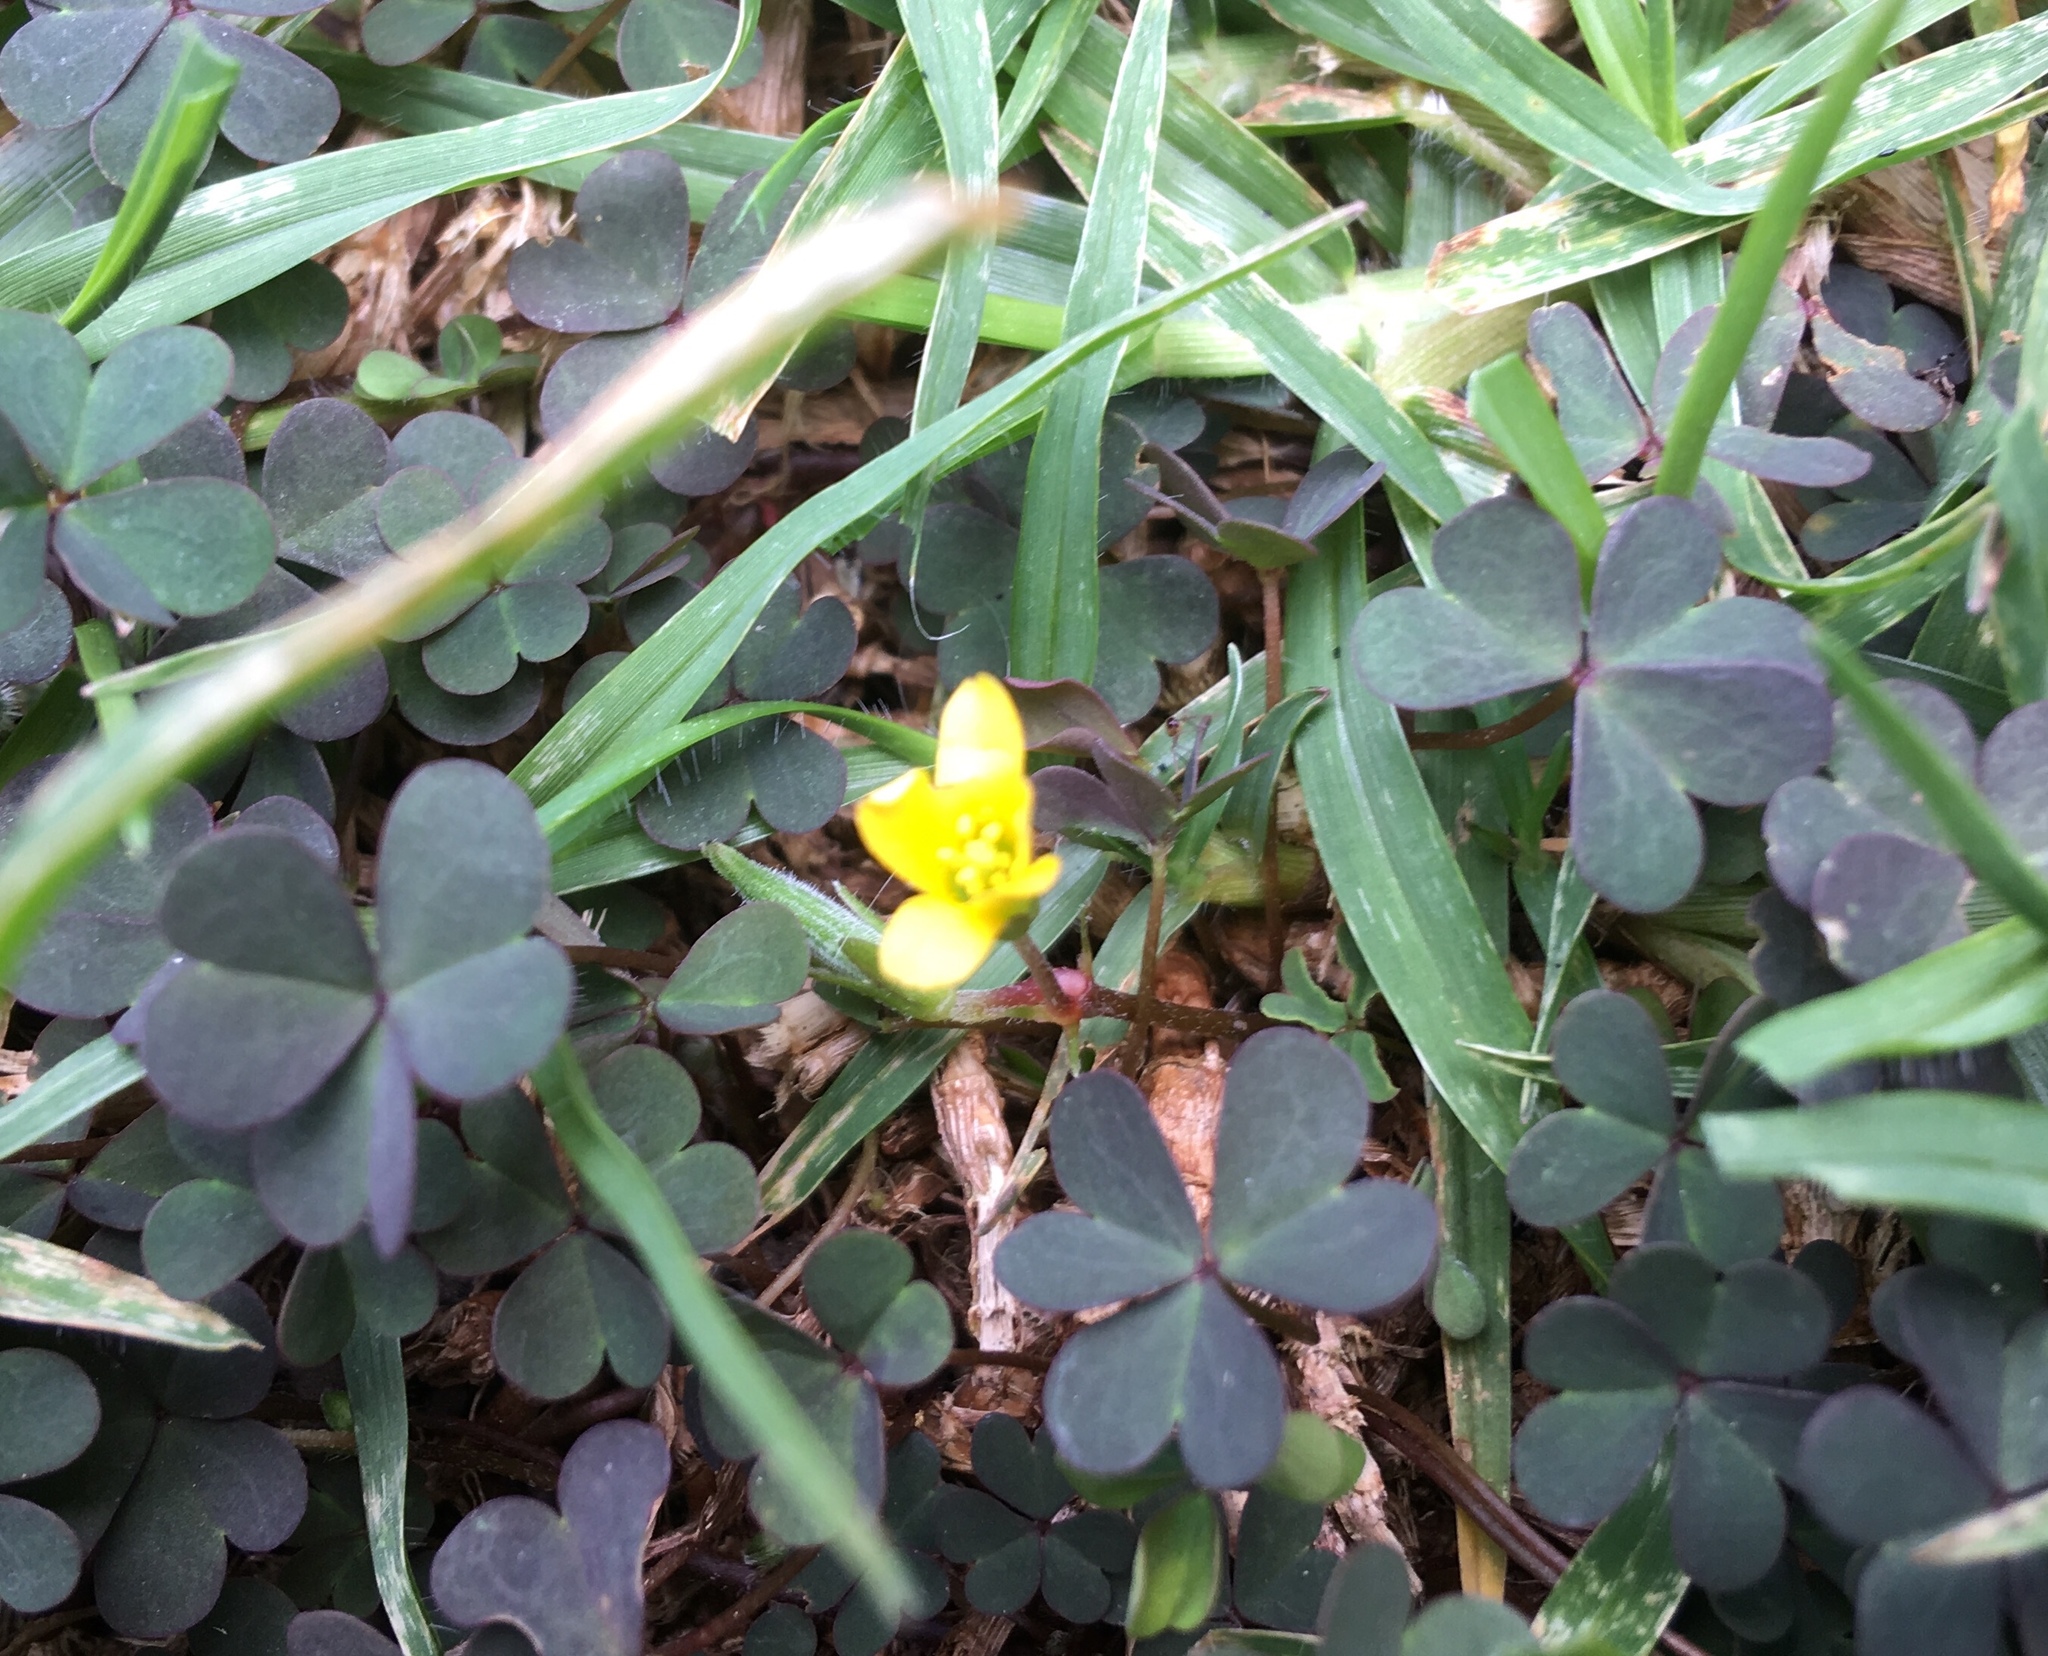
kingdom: Plantae
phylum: Tracheophyta
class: Magnoliopsida
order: Oxalidales
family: Oxalidaceae
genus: Oxalis
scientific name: Oxalis corniculata
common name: Procumbent yellow-sorrel
